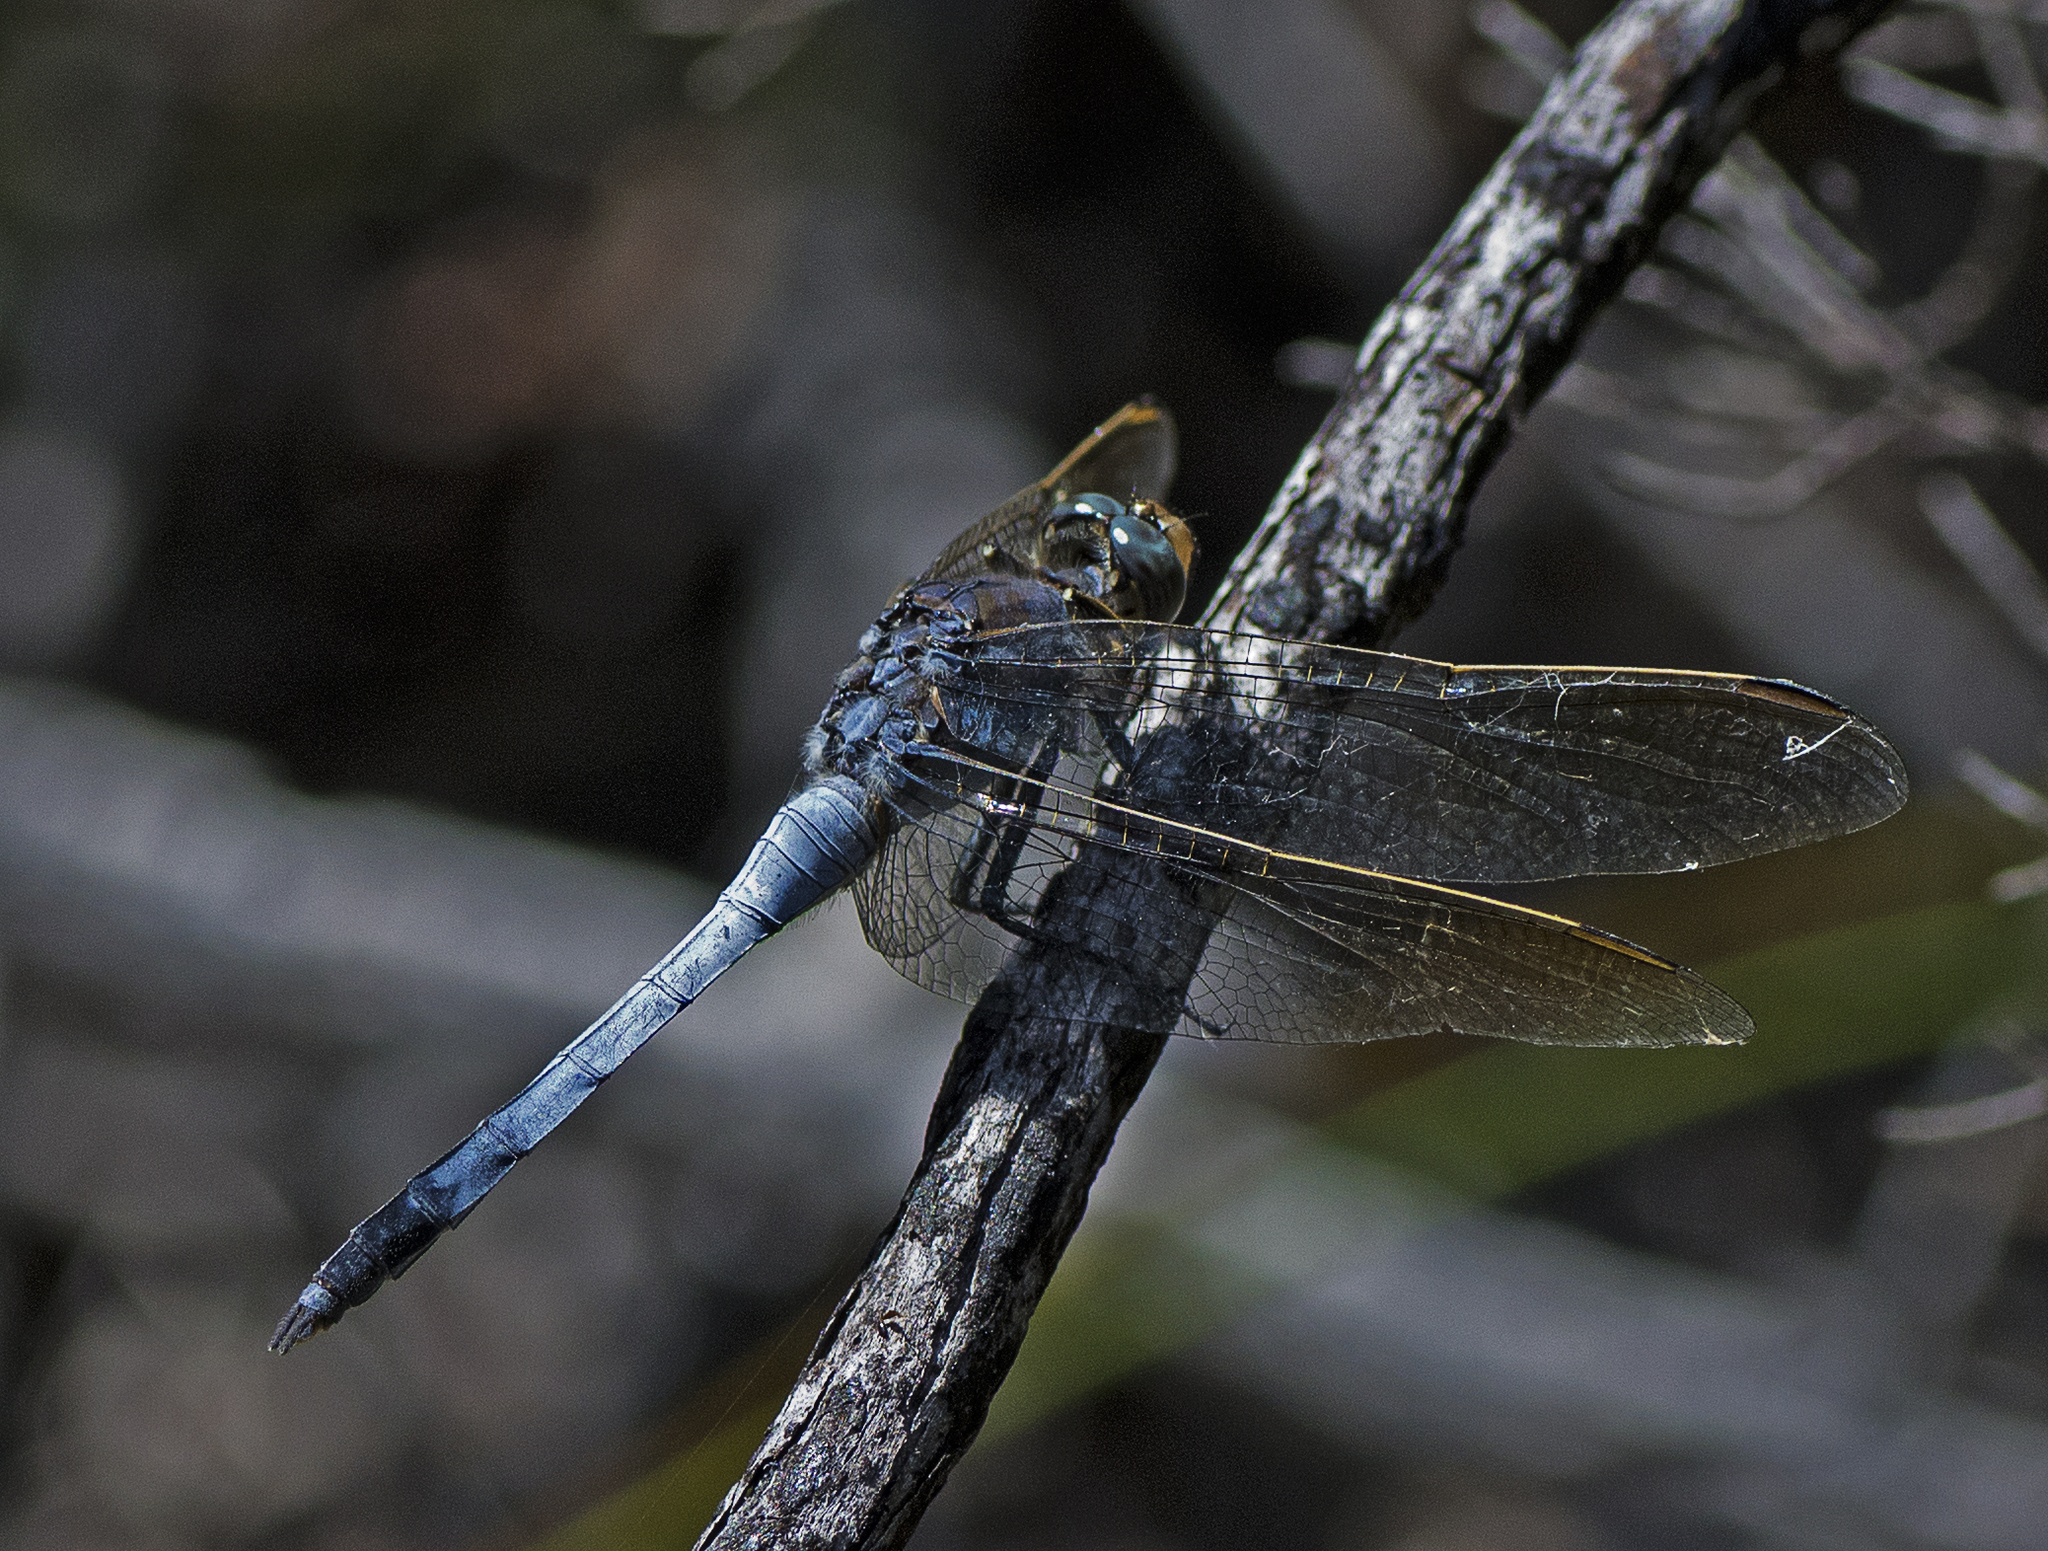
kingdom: Animalia
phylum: Arthropoda
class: Insecta
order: Odonata
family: Libellulidae
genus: Orthetrum
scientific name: Orthetrum caledonicum
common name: Blue skimmer
